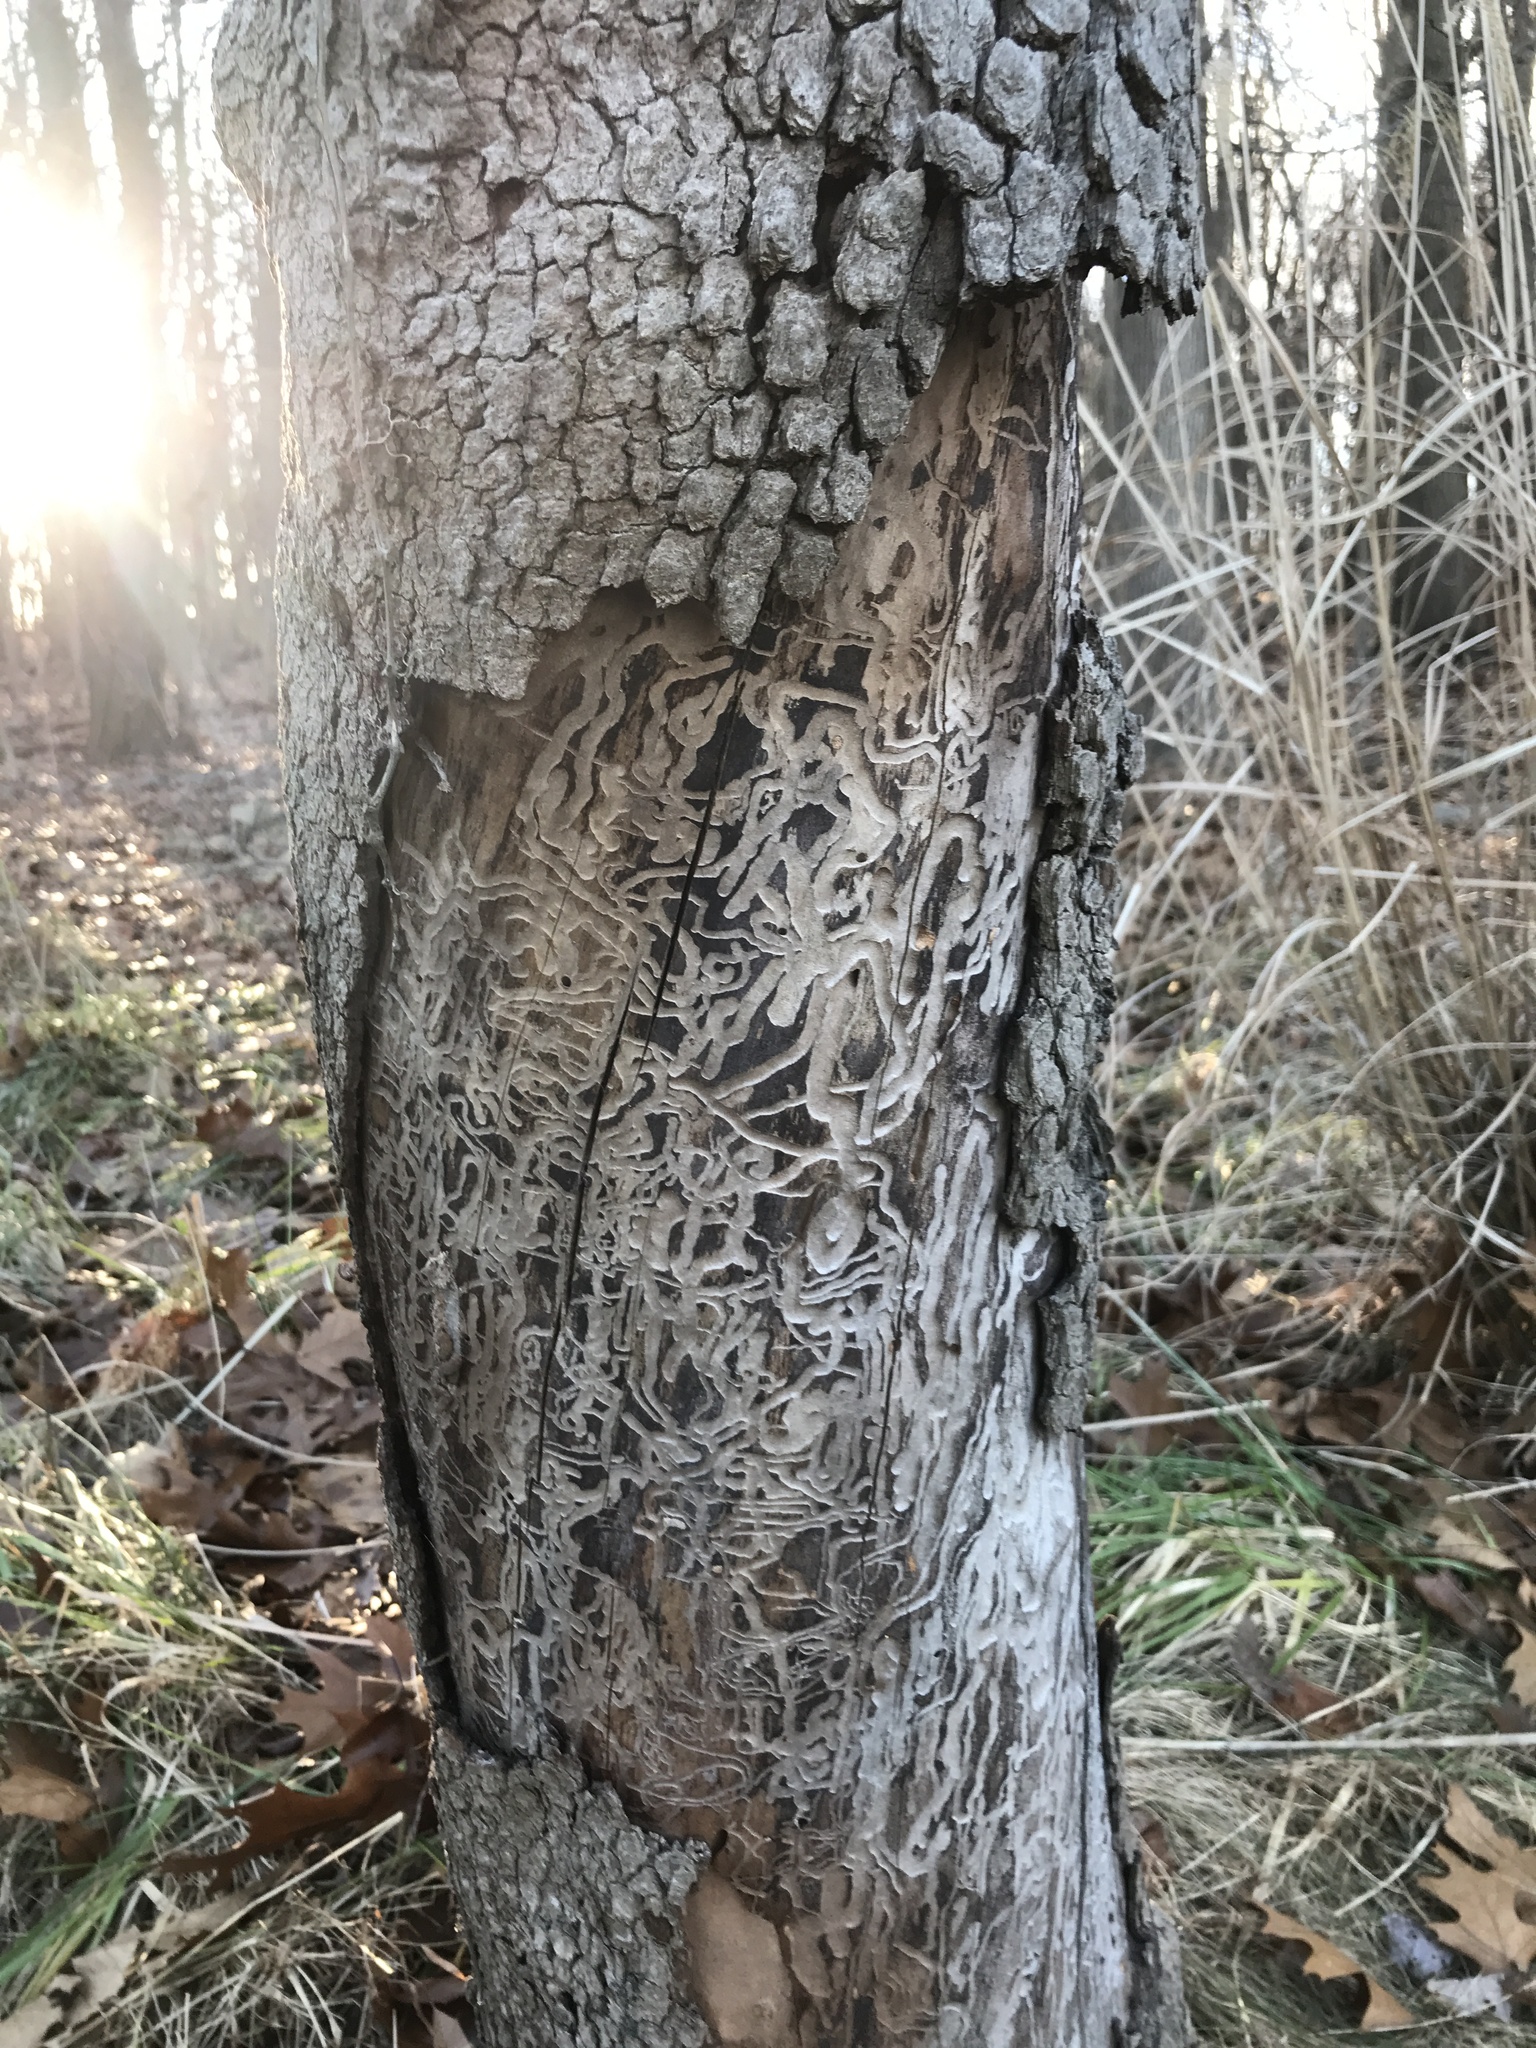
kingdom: Animalia
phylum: Arthropoda
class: Insecta
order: Coleoptera
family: Buprestidae
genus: Agrilus
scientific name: Agrilus planipennis
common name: Emerald ash borer
